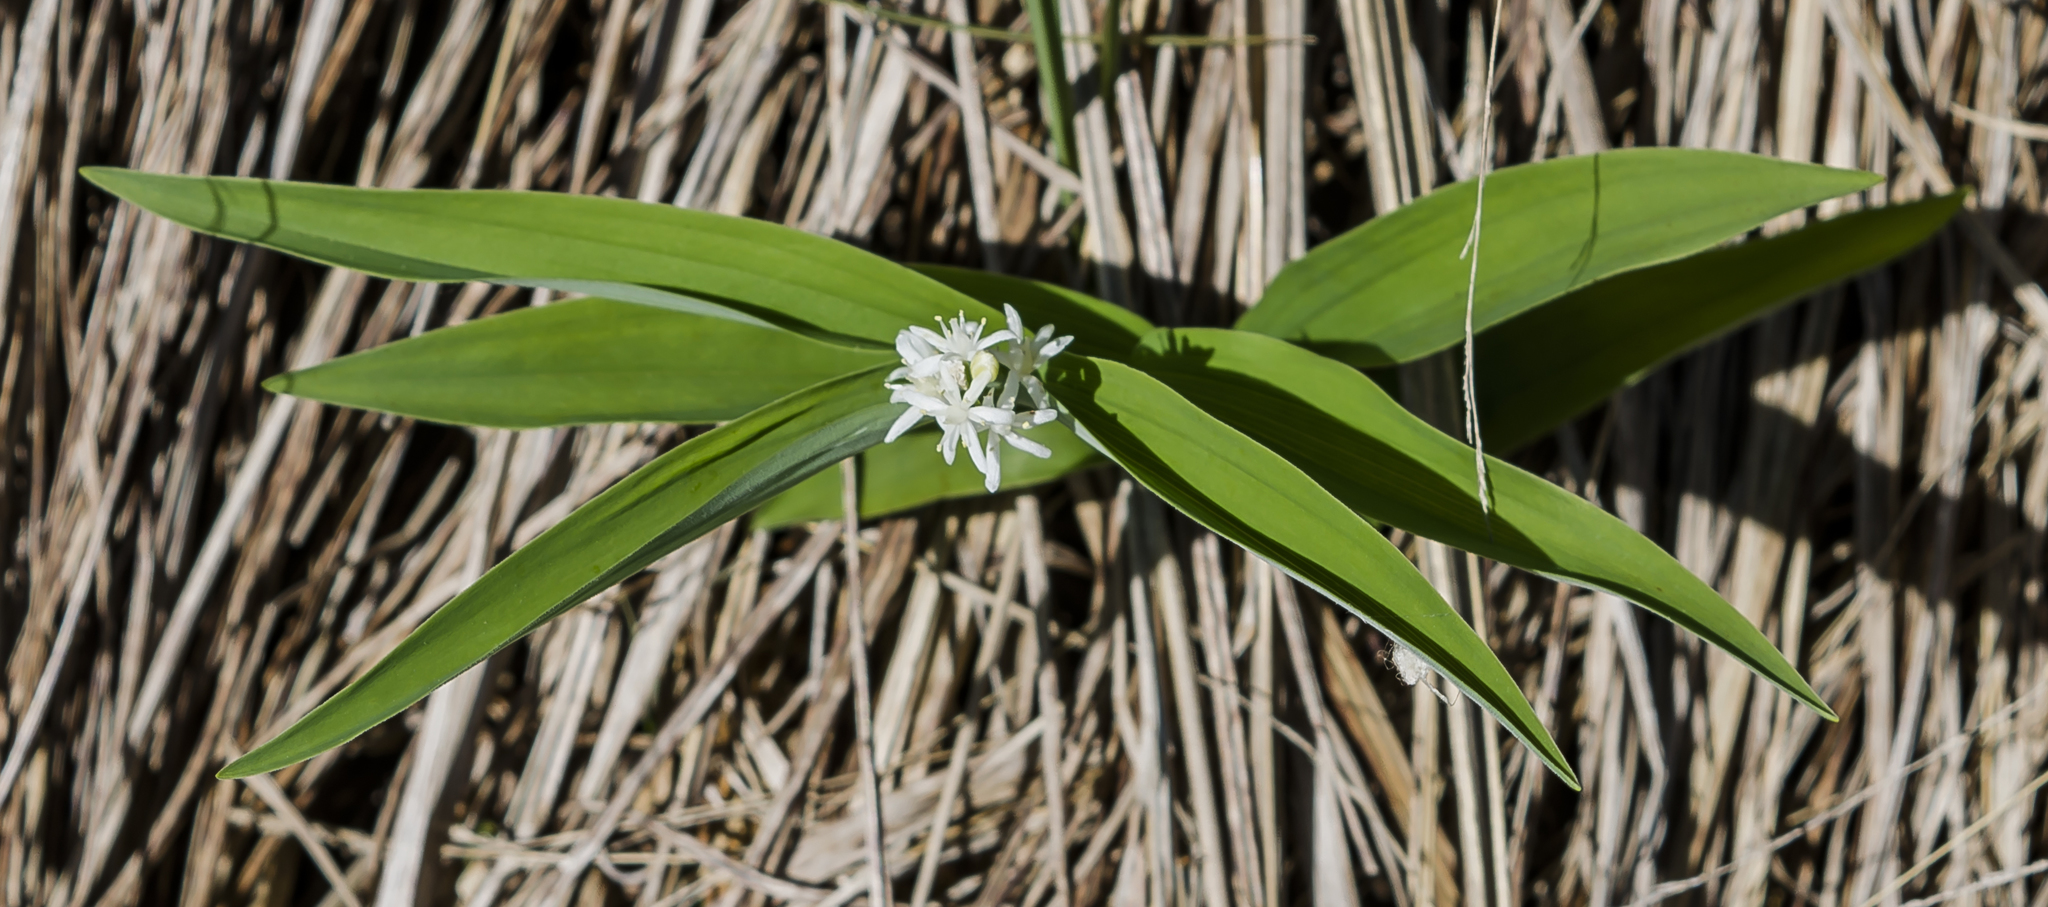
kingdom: Plantae
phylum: Tracheophyta
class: Liliopsida
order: Asparagales
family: Asparagaceae
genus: Maianthemum
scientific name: Maianthemum stellatum
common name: Little false solomon's seal
